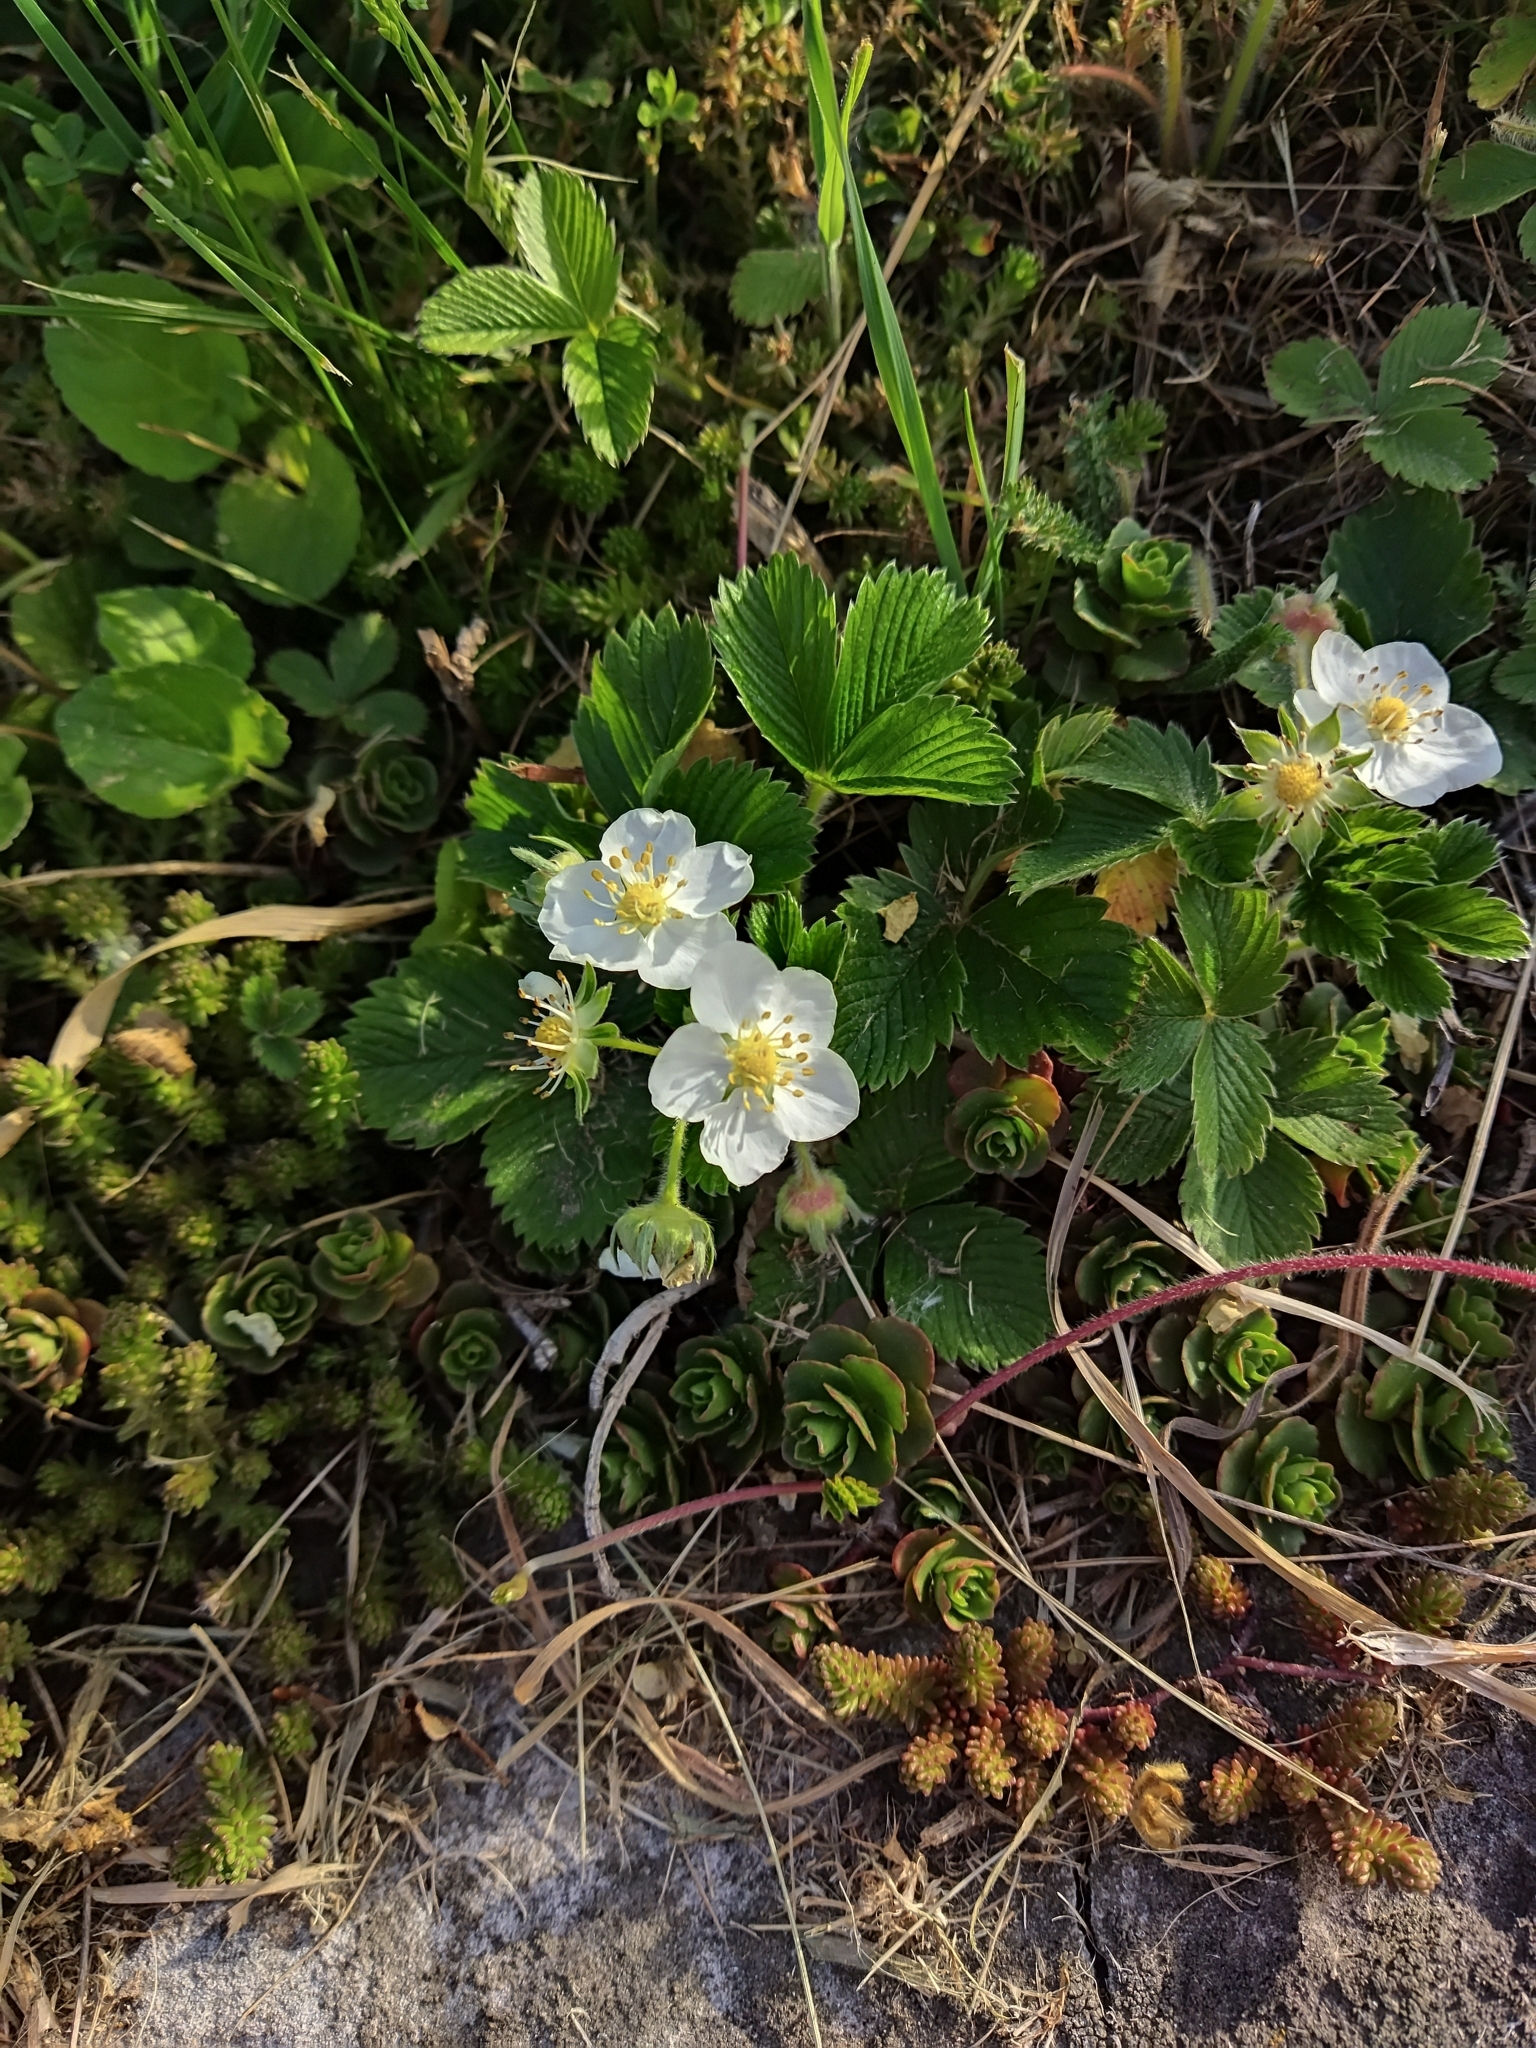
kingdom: Plantae
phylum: Tracheophyta
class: Magnoliopsida
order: Rosales
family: Rosaceae
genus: Fragaria
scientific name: Fragaria viridis
